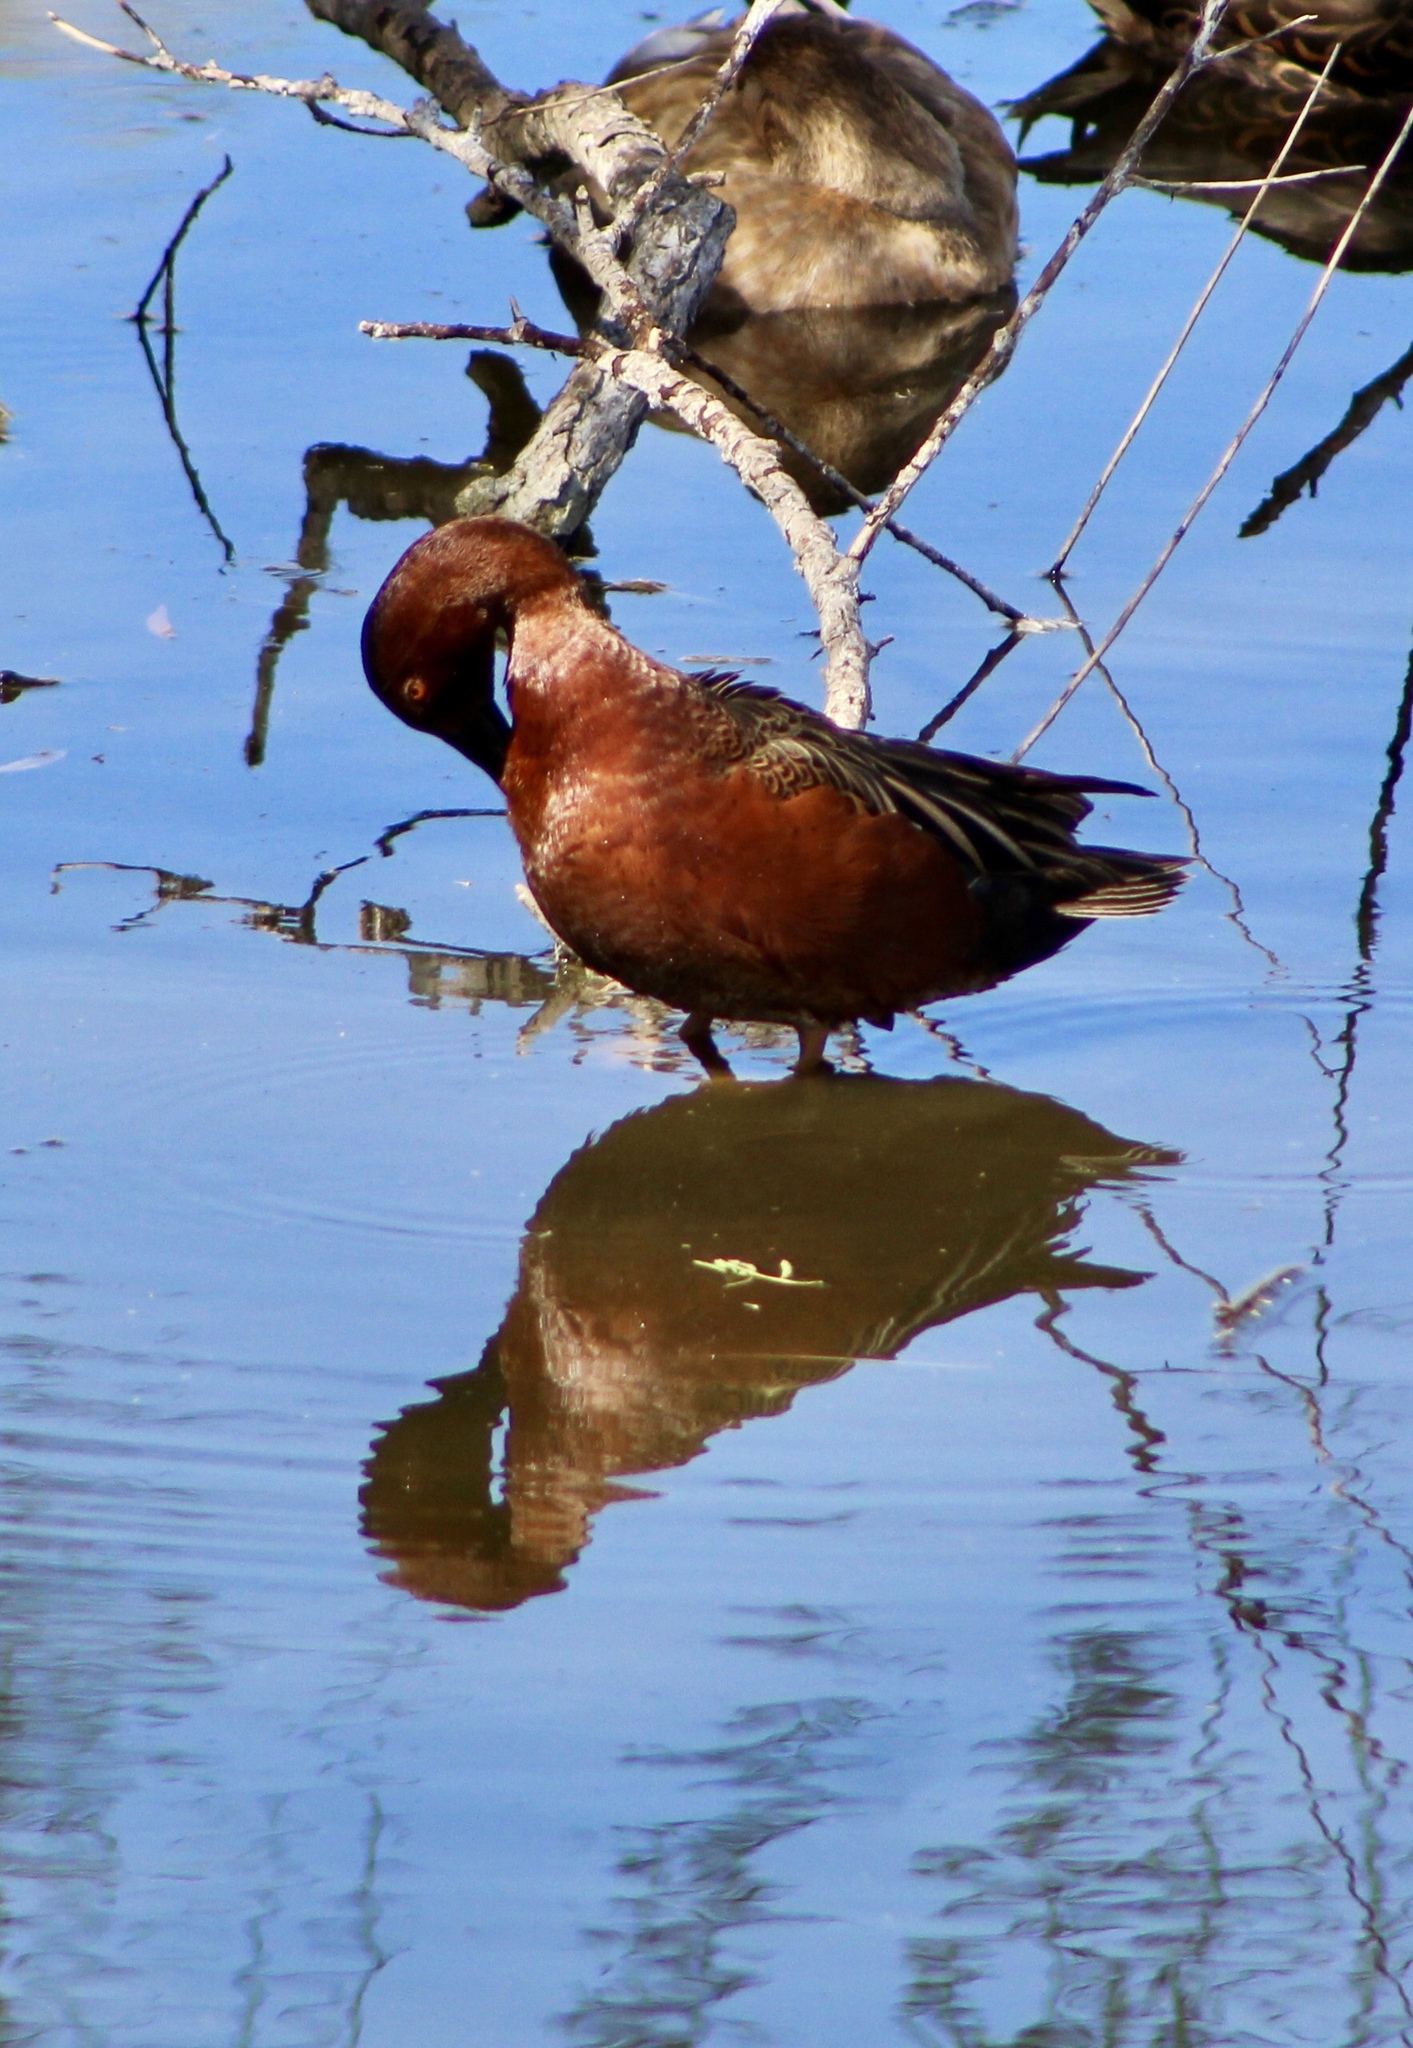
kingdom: Animalia
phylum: Chordata
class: Aves
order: Anseriformes
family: Anatidae
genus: Spatula
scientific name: Spatula cyanoptera
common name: Cinnamon teal
